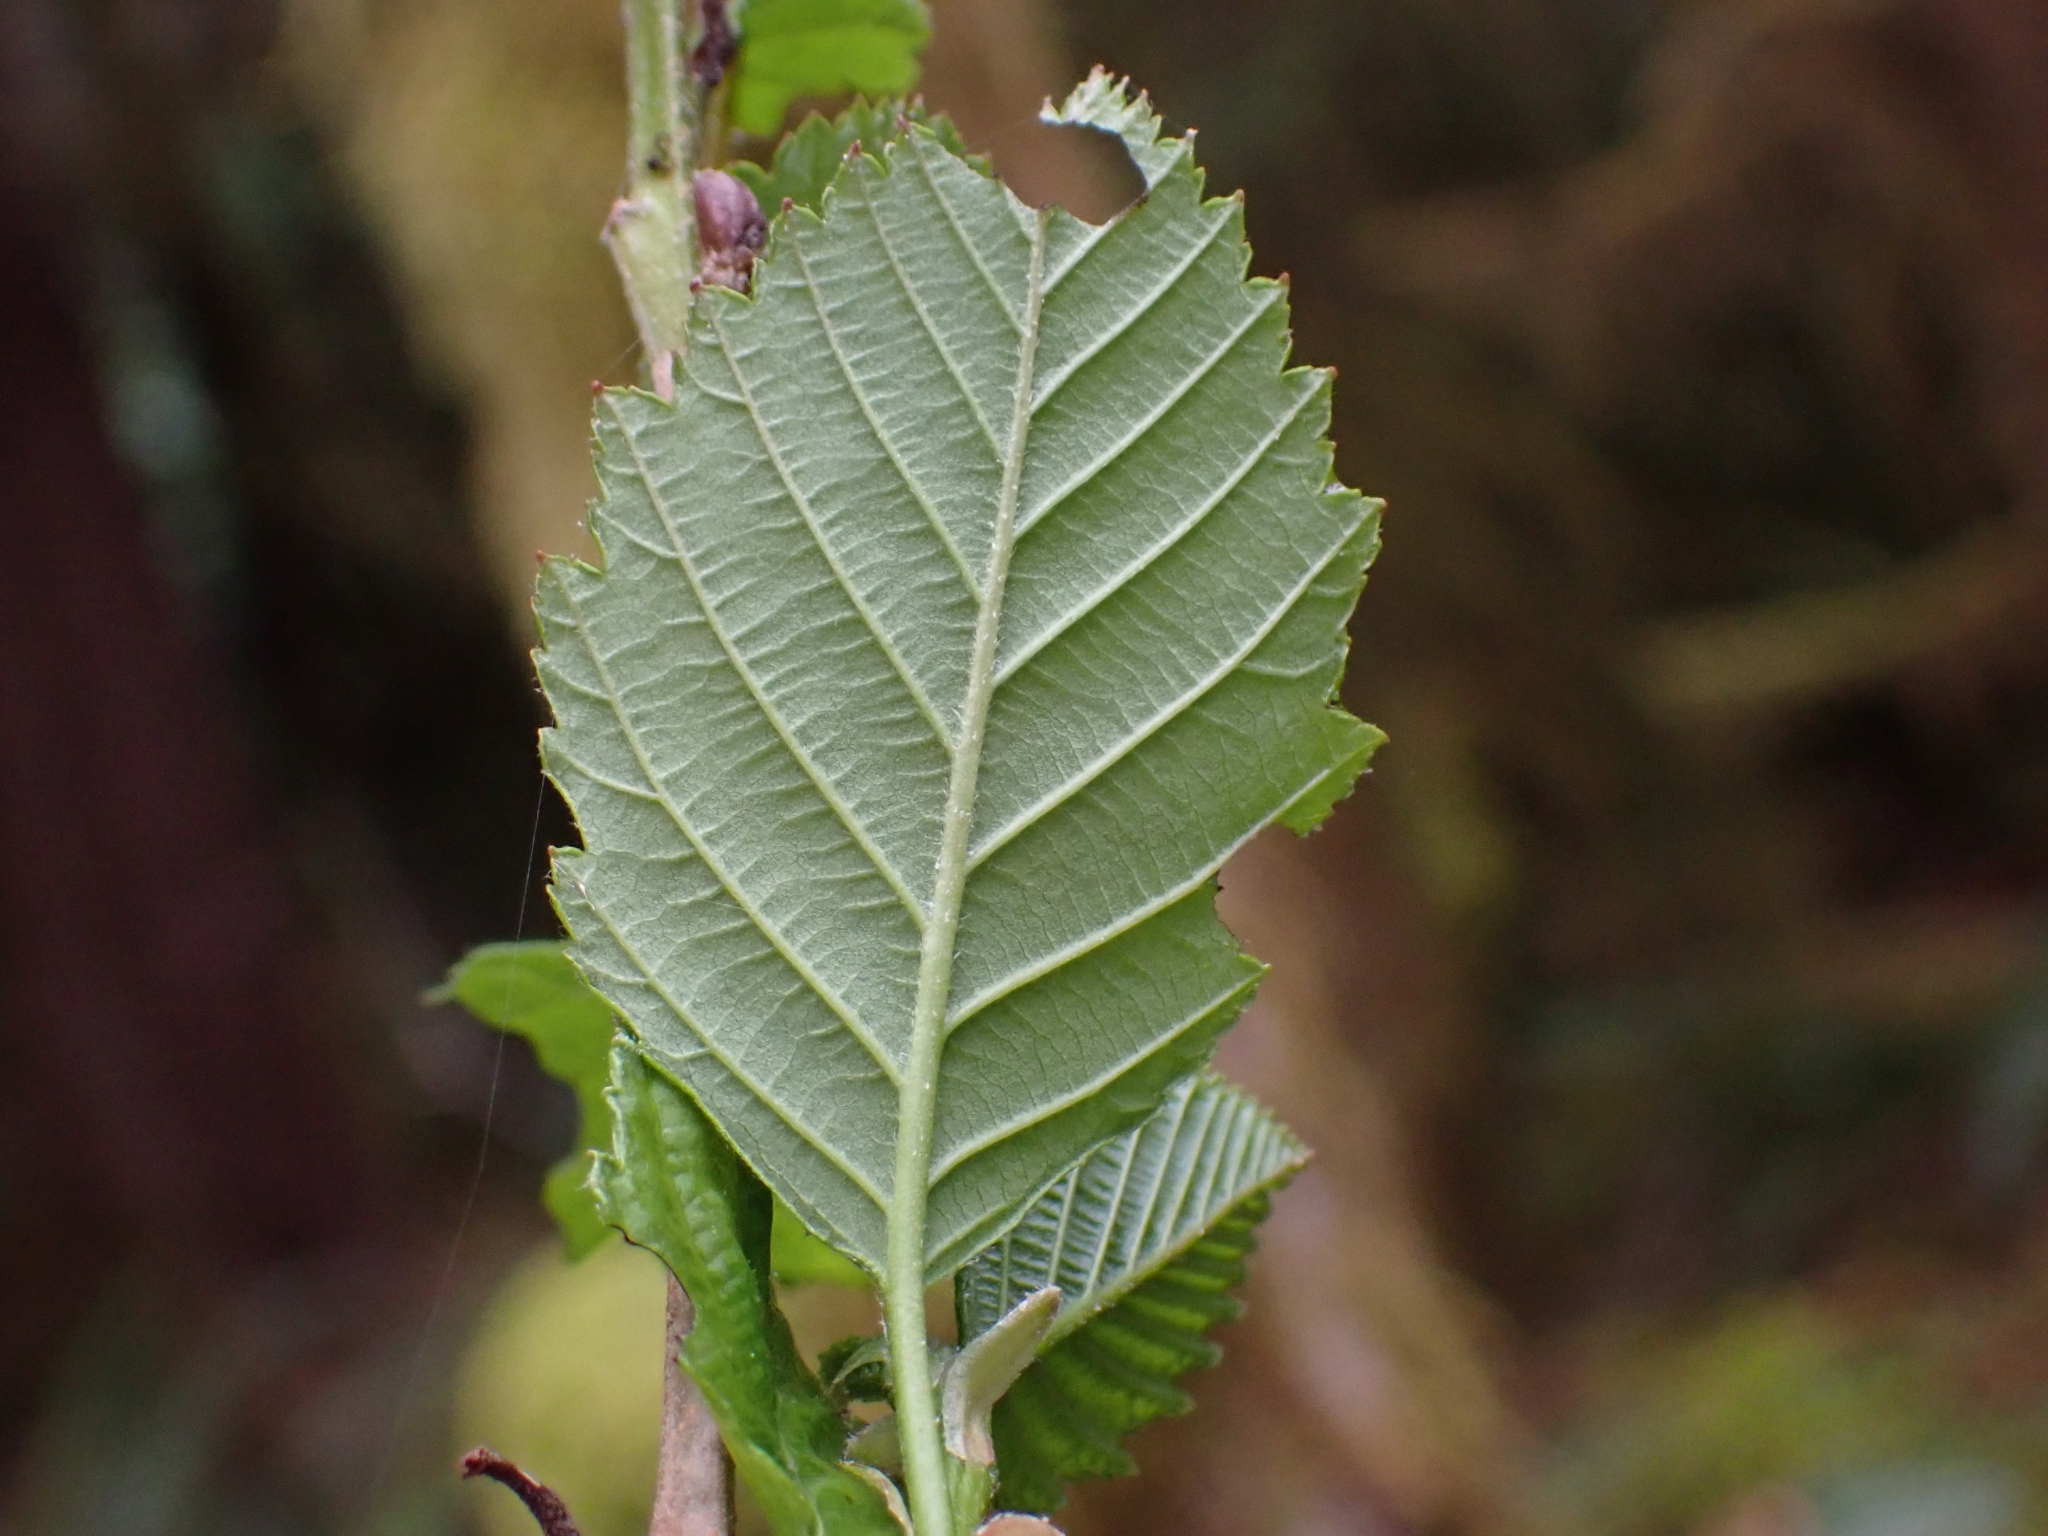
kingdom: Plantae
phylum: Tracheophyta
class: Magnoliopsida
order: Fagales
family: Betulaceae
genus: Alnus
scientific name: Alnus rubra
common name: Red alder
